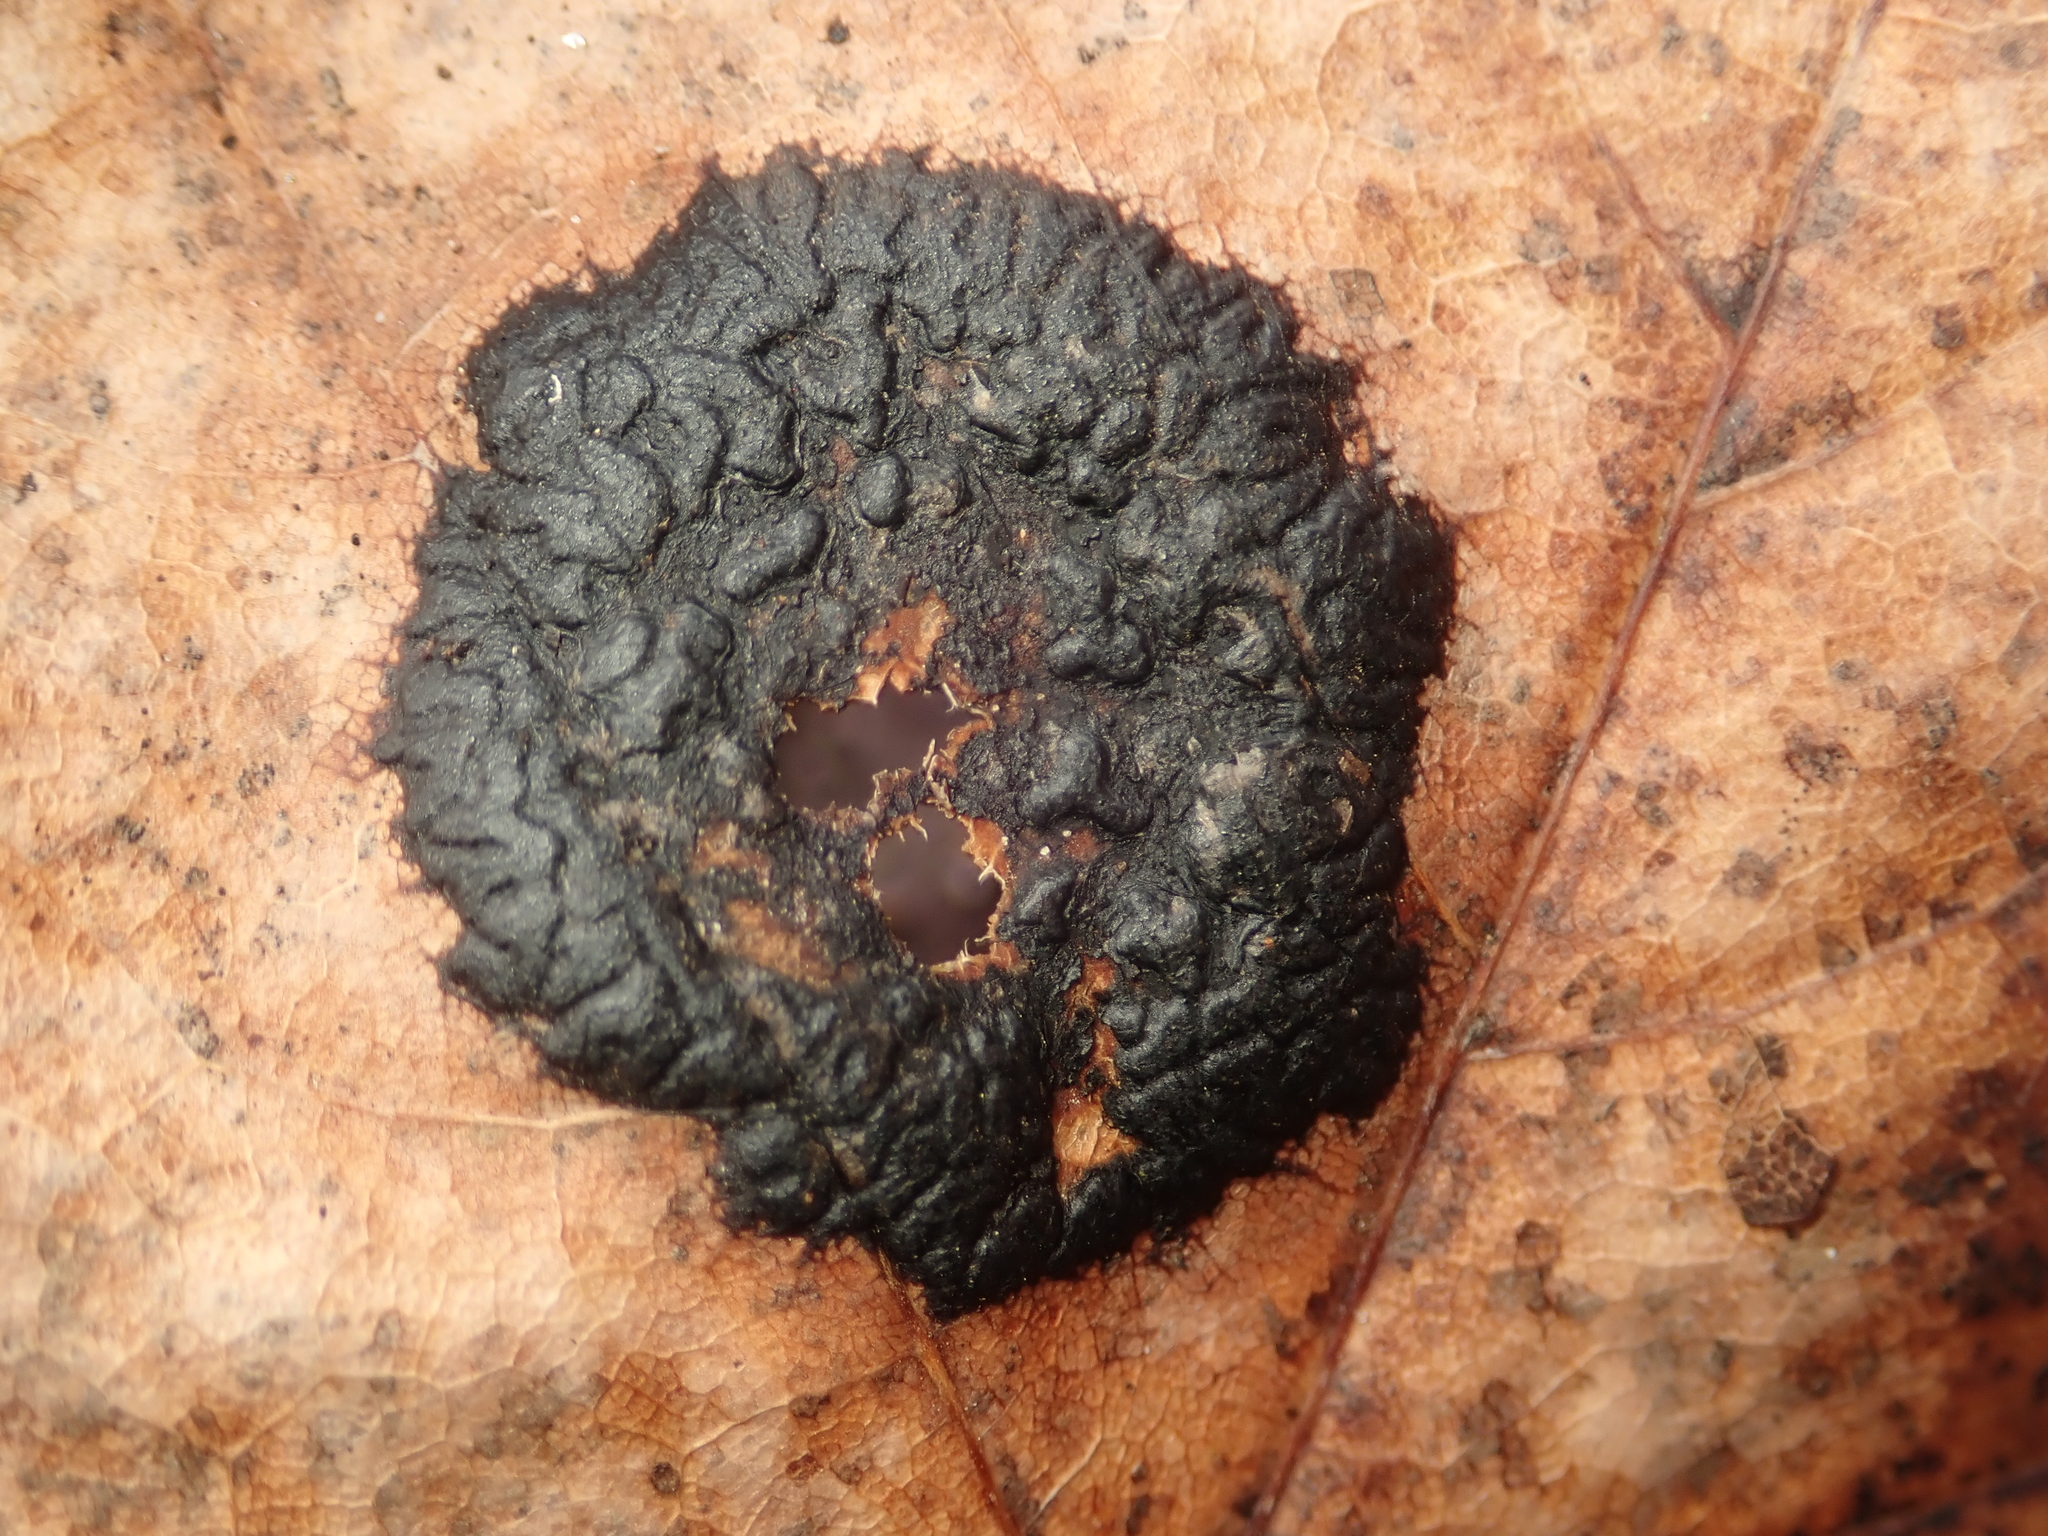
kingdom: Fungi
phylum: Ascomycota
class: Leotiomycetes
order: Rhytismatales
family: Rhytismataceae
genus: Rhytisma
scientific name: Rhytisma acerinum
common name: European tar spot
